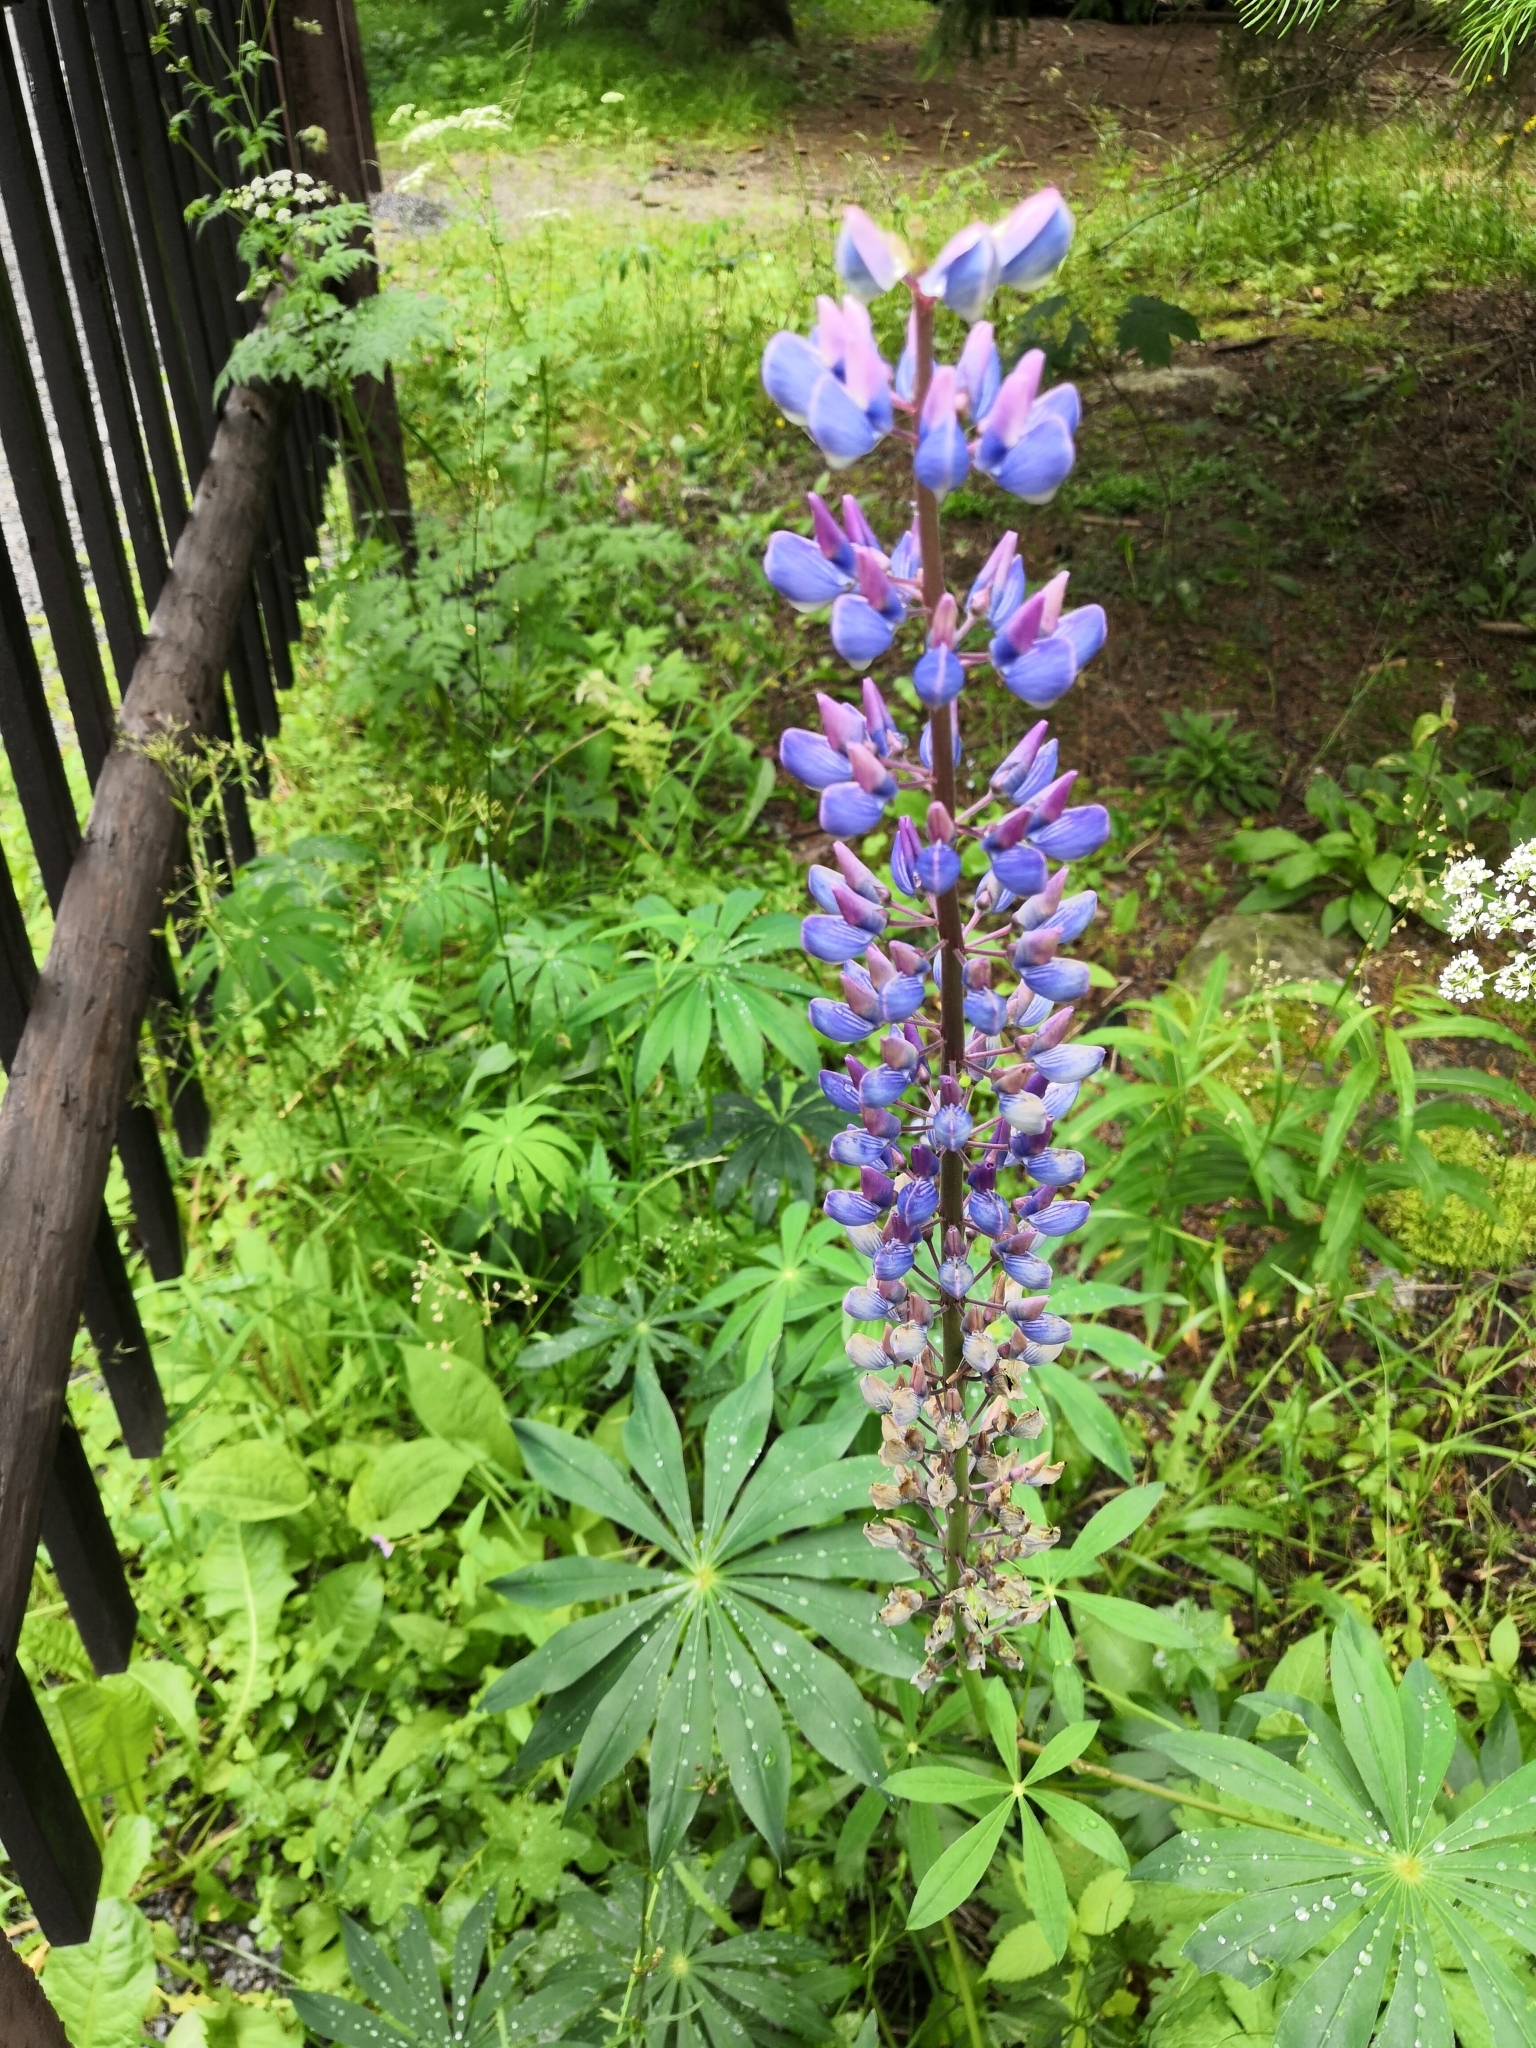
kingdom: Plantae
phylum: Tracheophyta
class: Magnoliopsida
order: Fabales
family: Fabaceae
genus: Lupinus
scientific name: Lupinus polyphyllus
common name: Garden lupin
